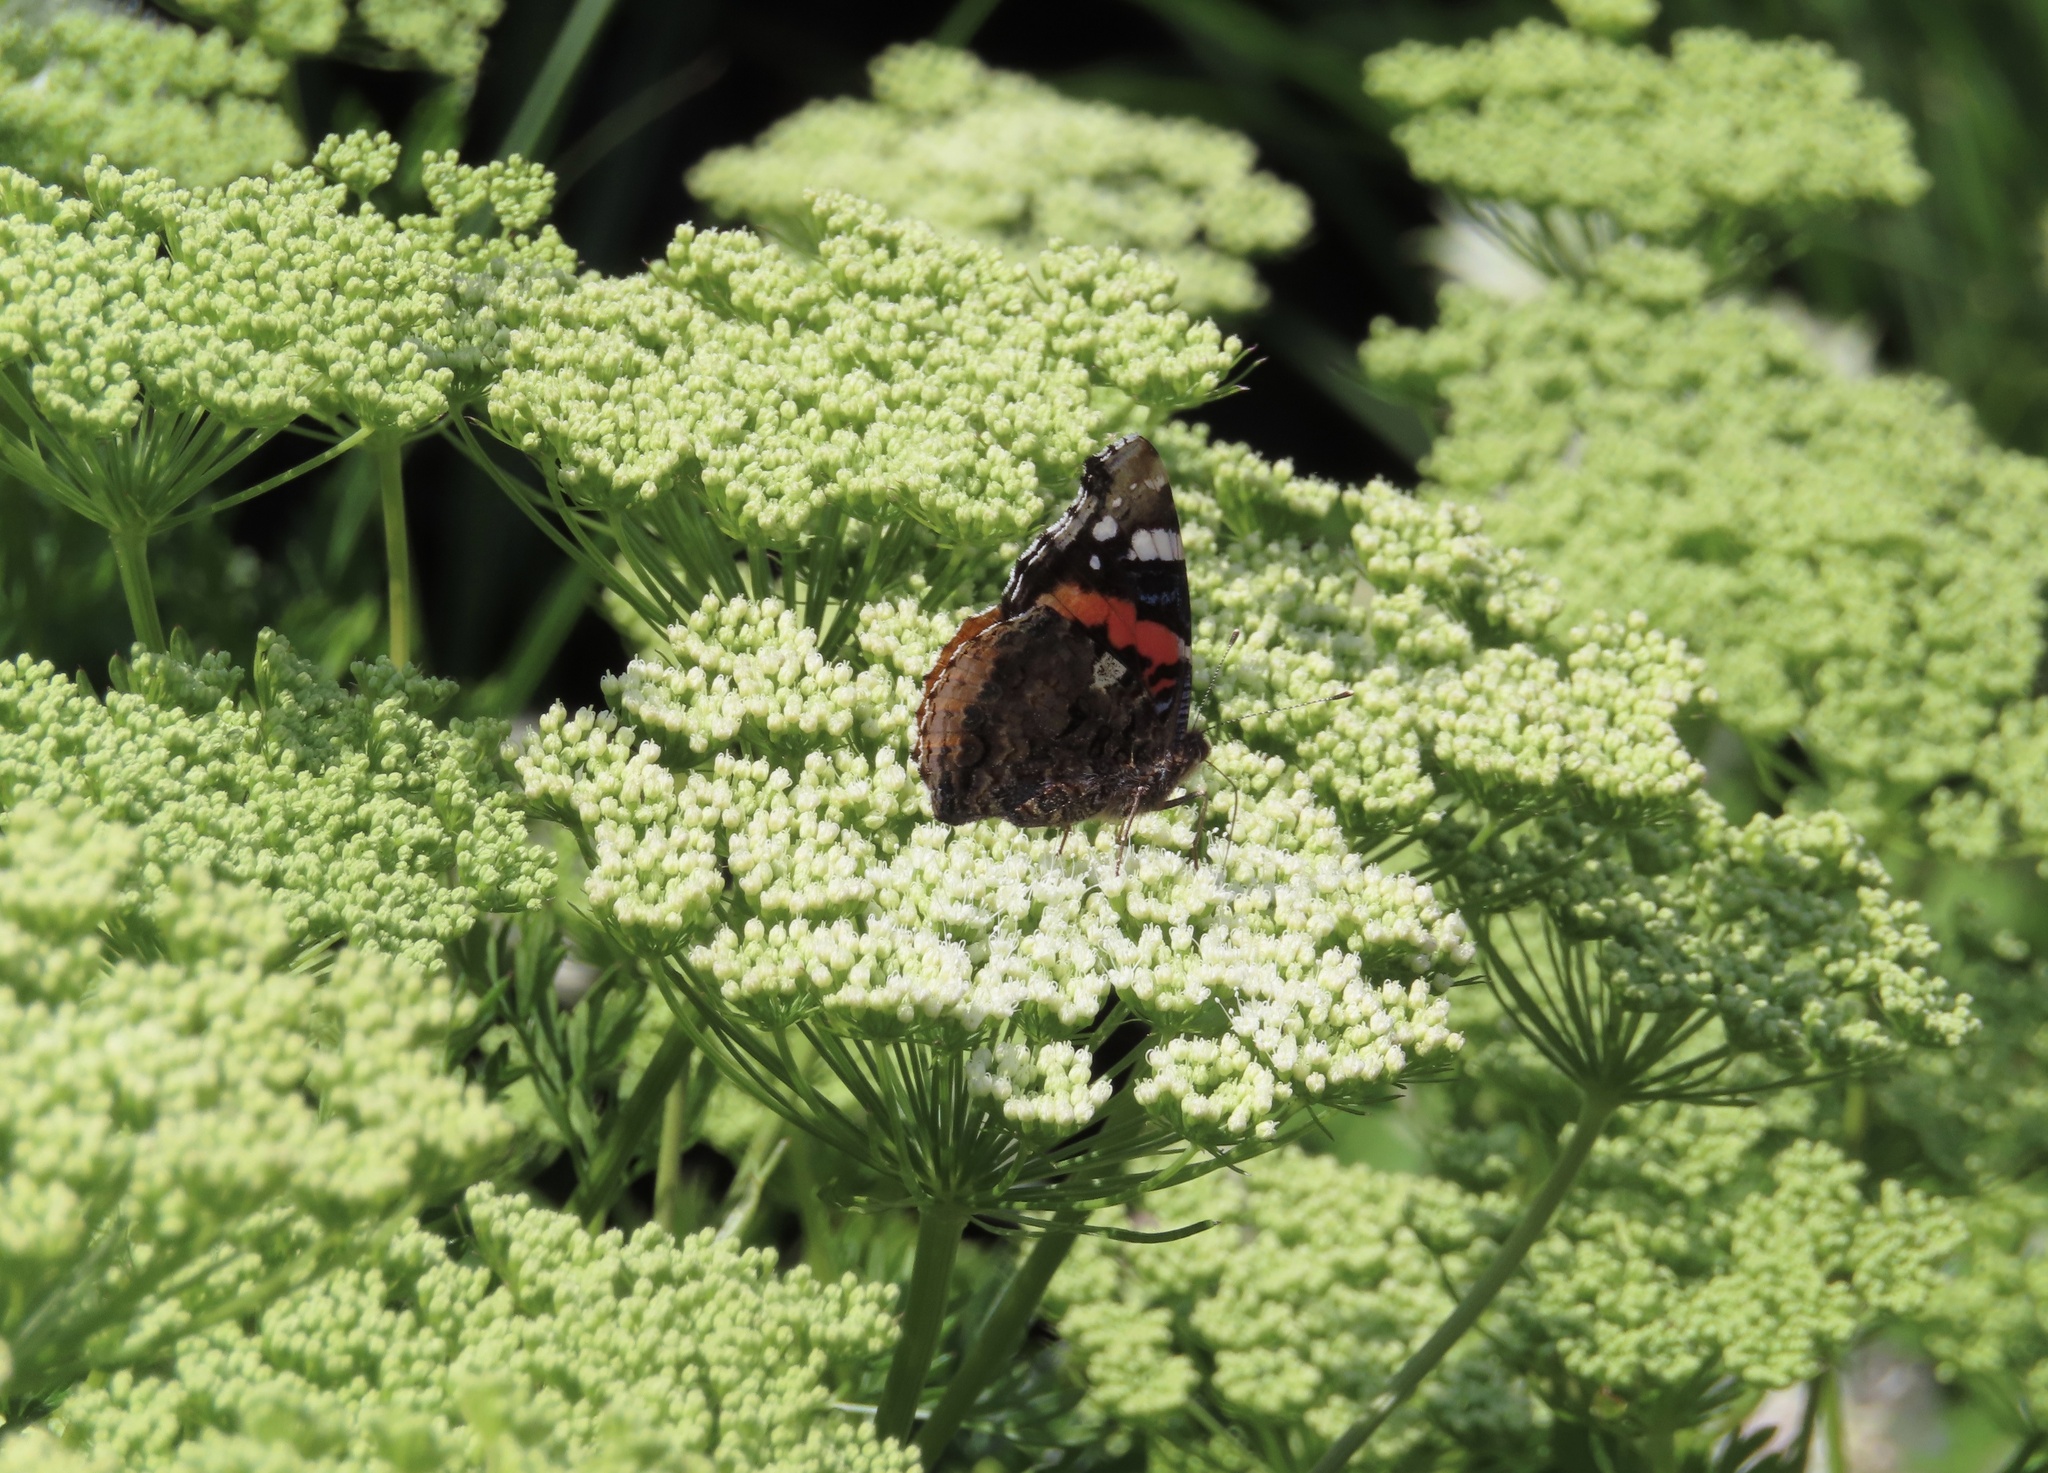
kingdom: Animalia
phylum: Arthropoda
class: Insecta
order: Lepidoptera
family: Nymphalidae
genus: Vanessa
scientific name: Vanessa atalanta
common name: Red admiral
